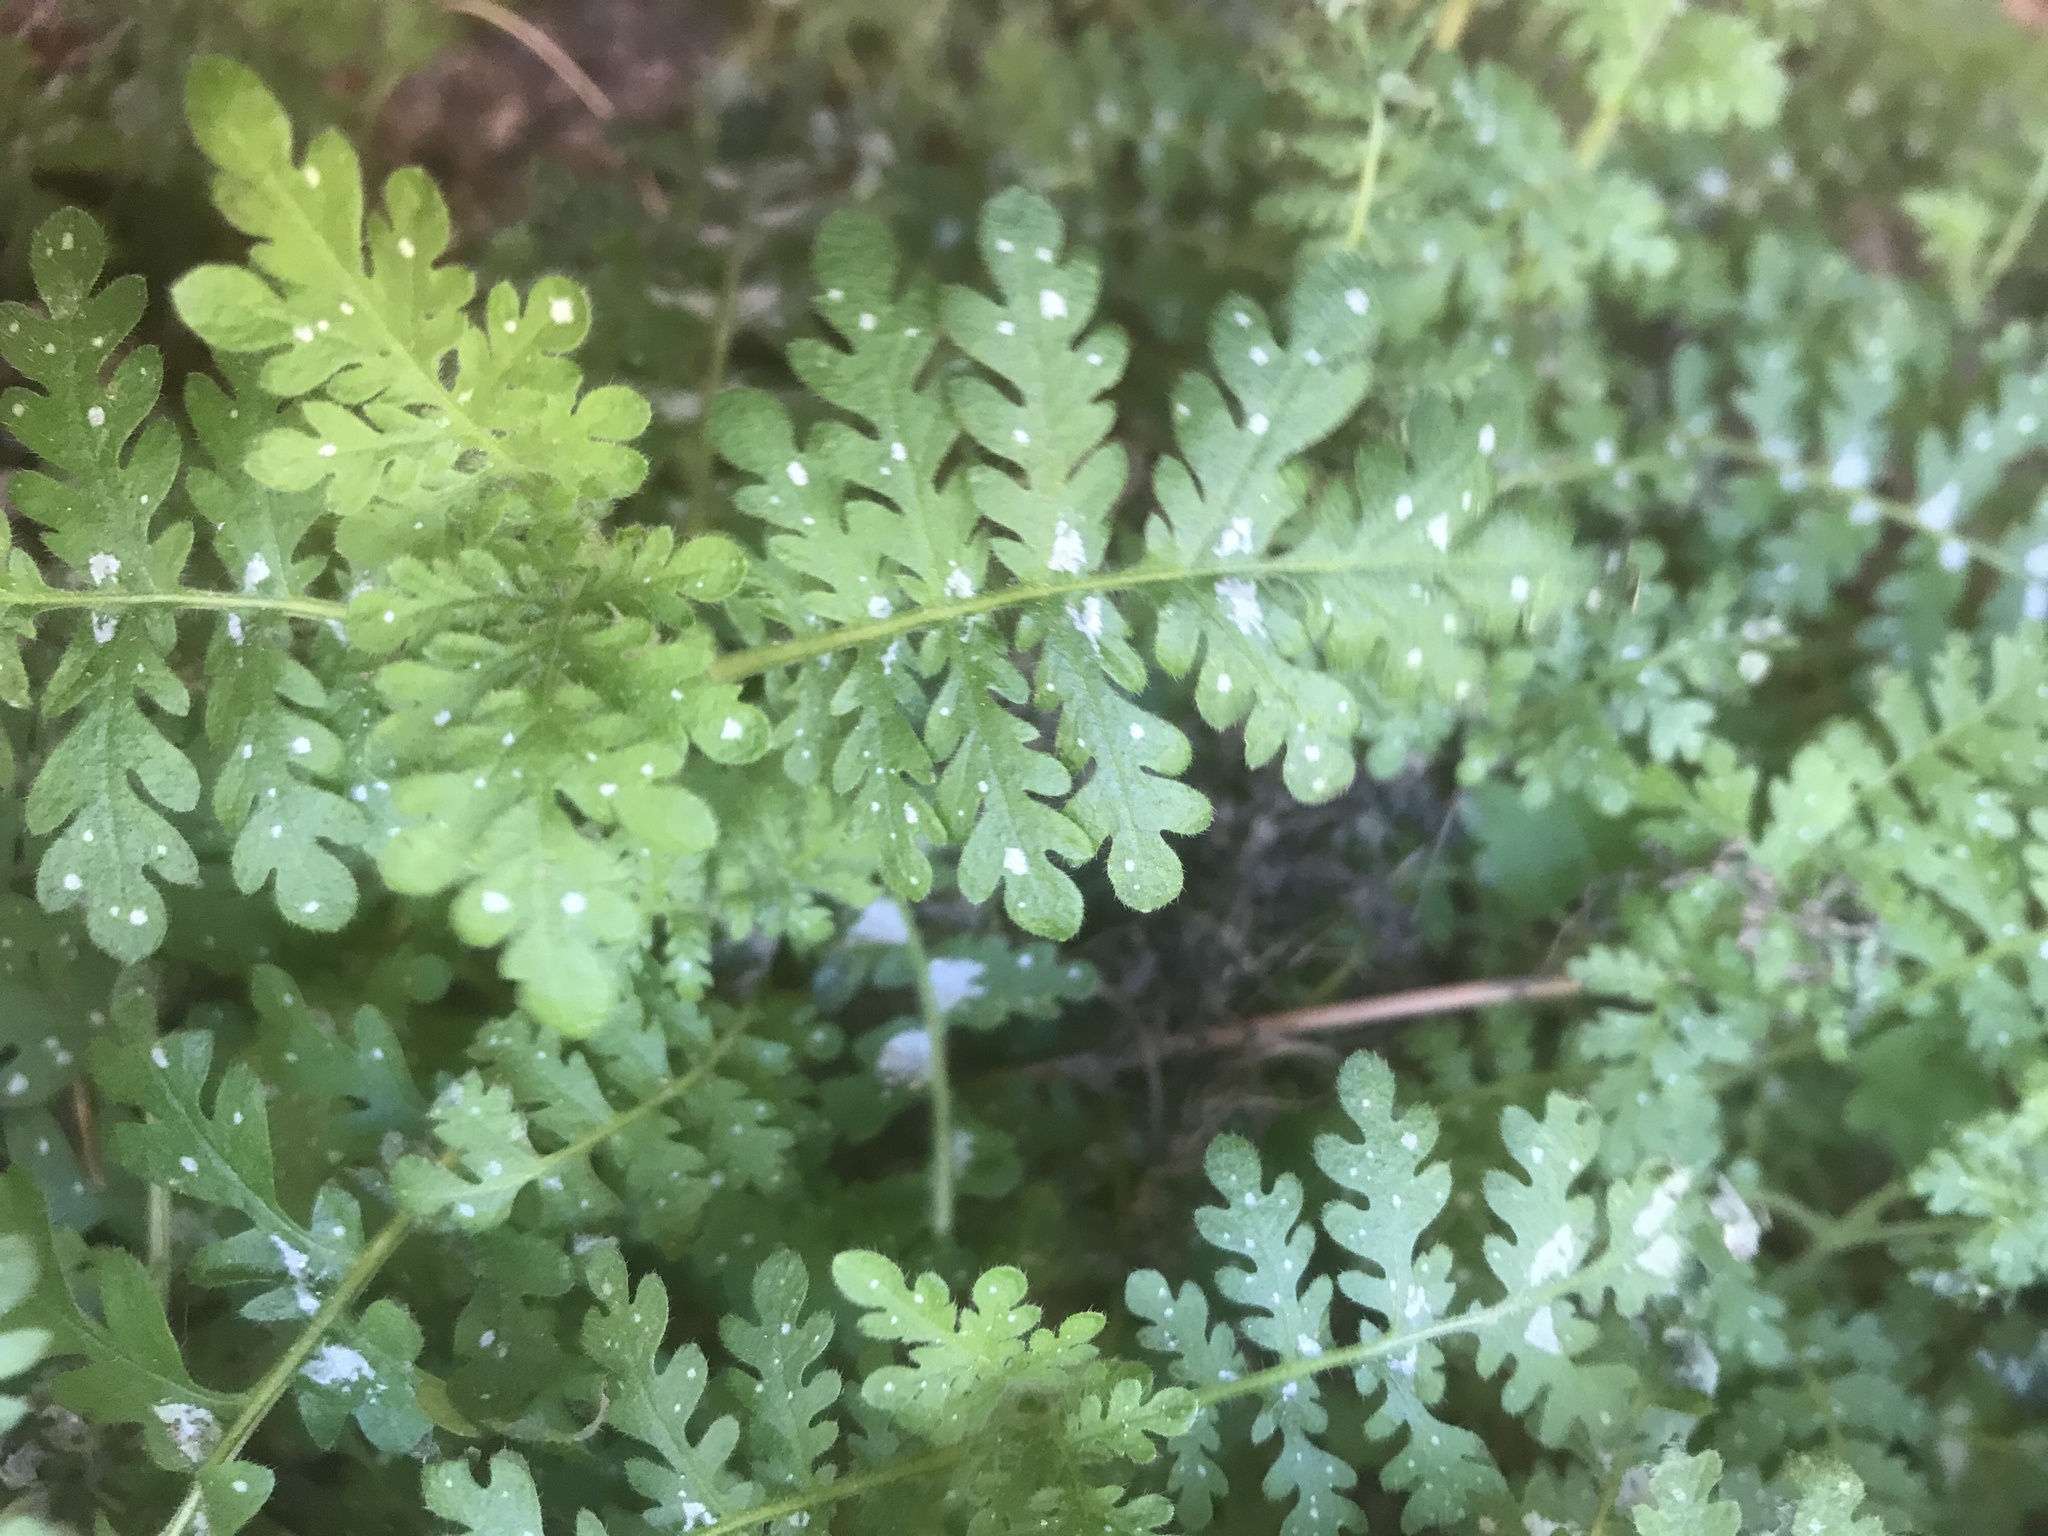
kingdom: Plantae
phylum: Tracheophyta
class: Magnoliopsida
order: Boraginales
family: Hydrophyllaceae
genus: Eucrypta
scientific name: Eucrypta micrantha
